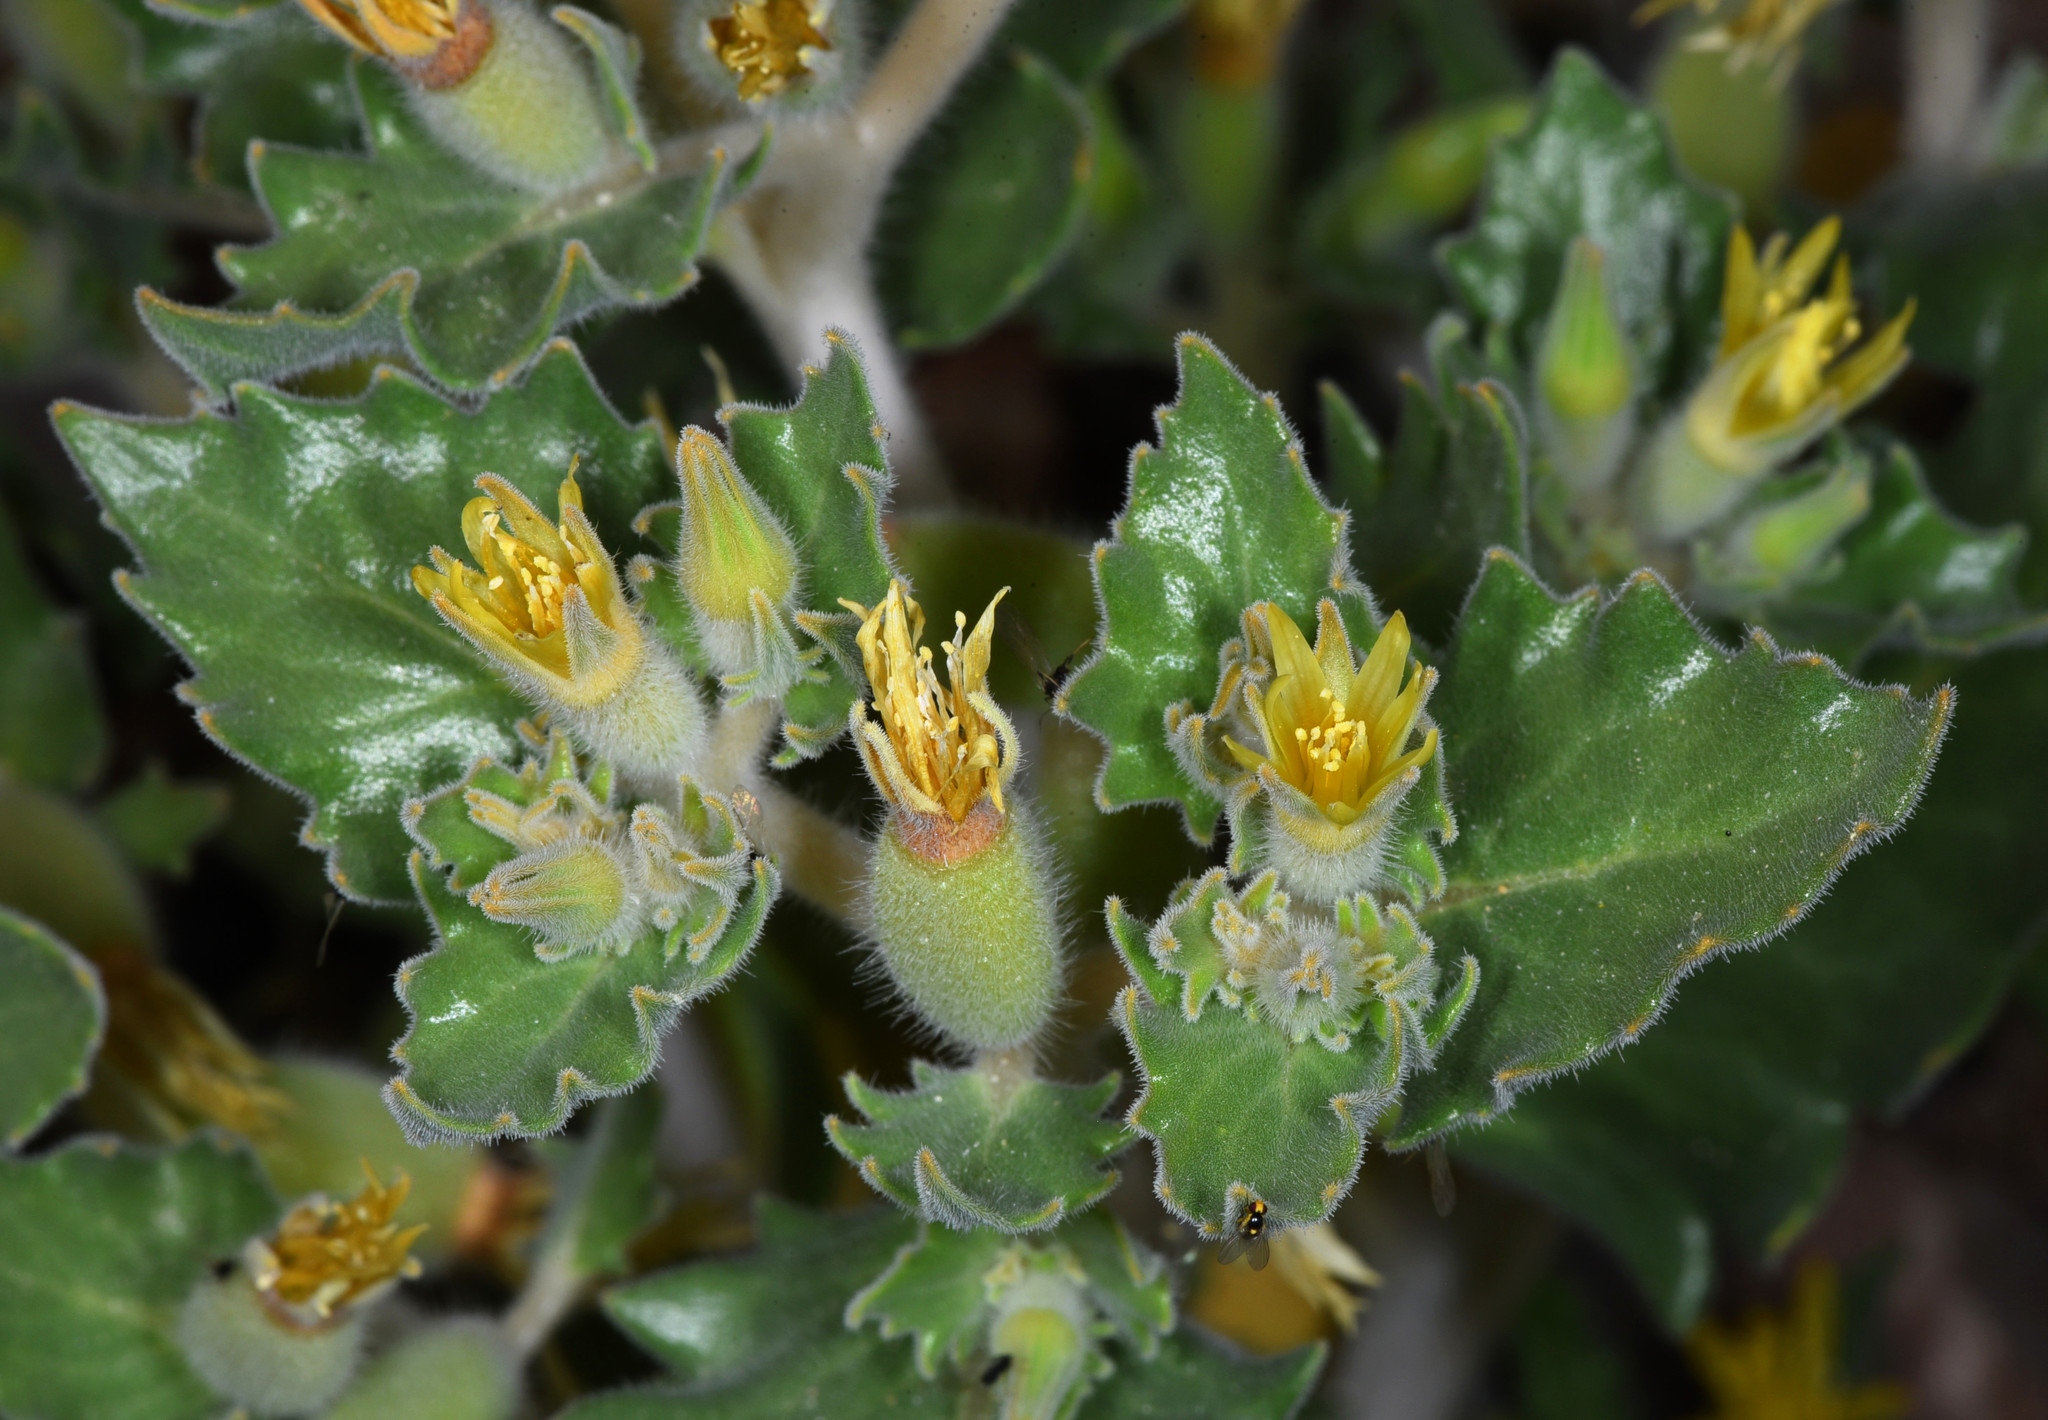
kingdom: Plantae
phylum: Tracheophyta
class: Magnoliopsida
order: Cornales
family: Loasaceae
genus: Mentzelia
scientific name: Mentzelia reflexa
